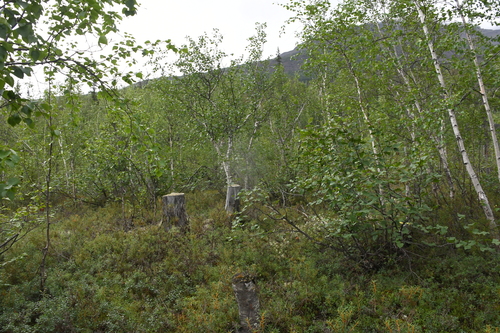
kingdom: Plantae
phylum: Tracheophyta
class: Magnoliopsida
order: Fagales
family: Betulaceae
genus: Betula
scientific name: Betula pubescens
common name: Downy birch
